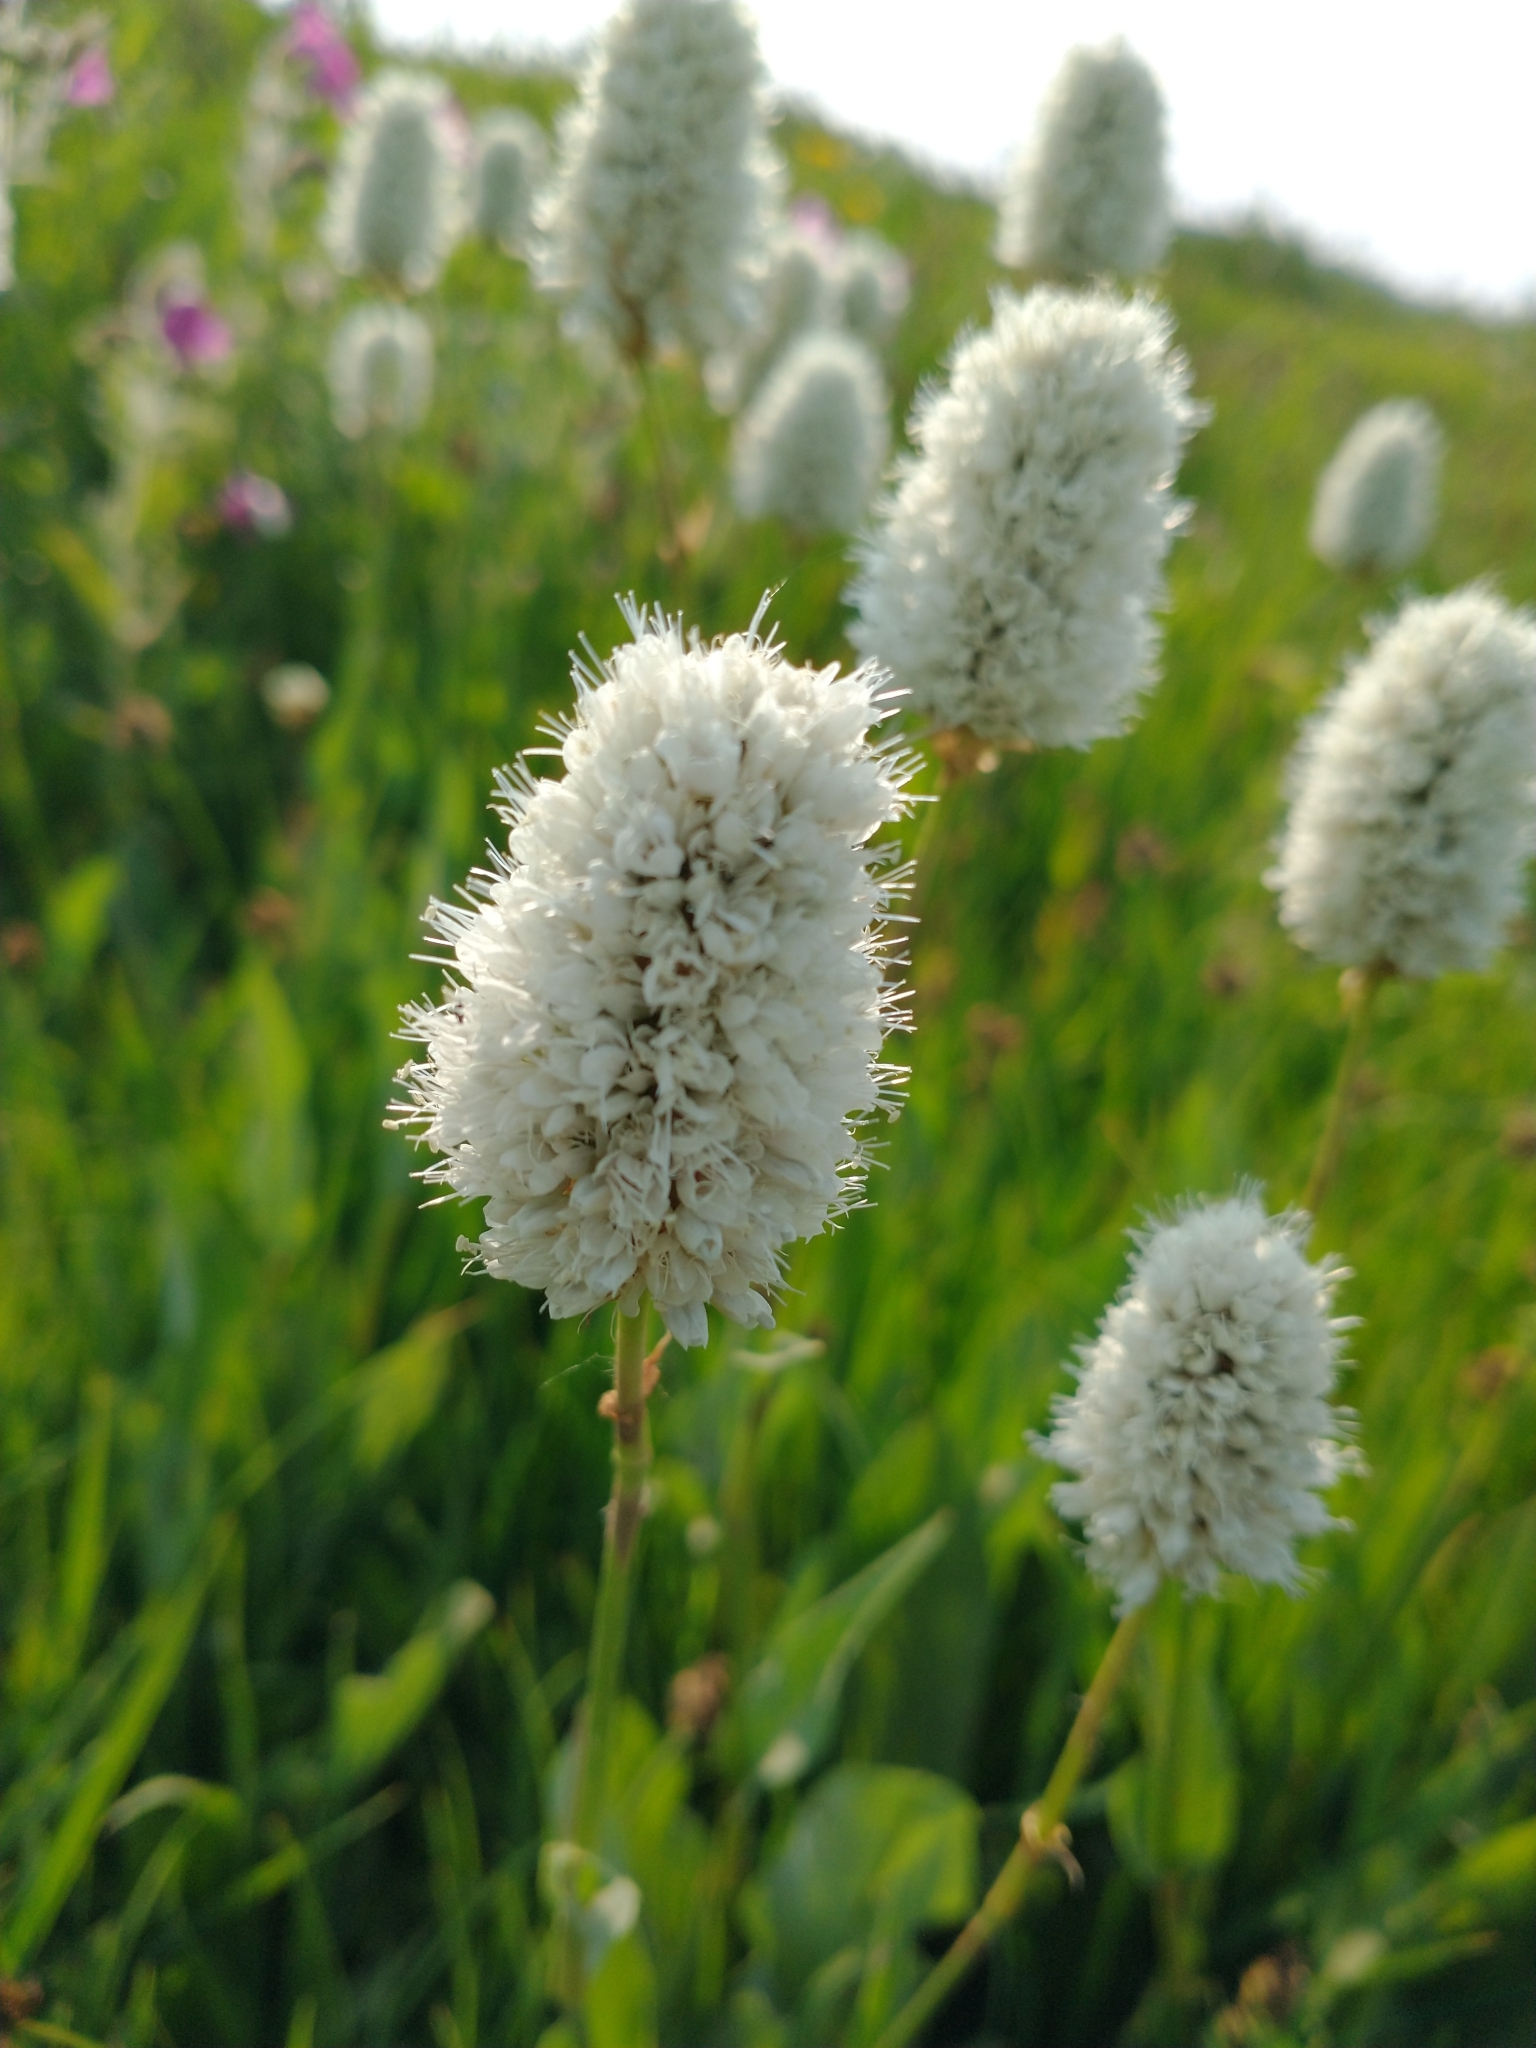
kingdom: Plantae
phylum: Tracheophyta
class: Magnoliopsida
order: Caryophyllales
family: Polygonaceae
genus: Bistorta
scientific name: Bistorta bistortoides
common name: American bistort
